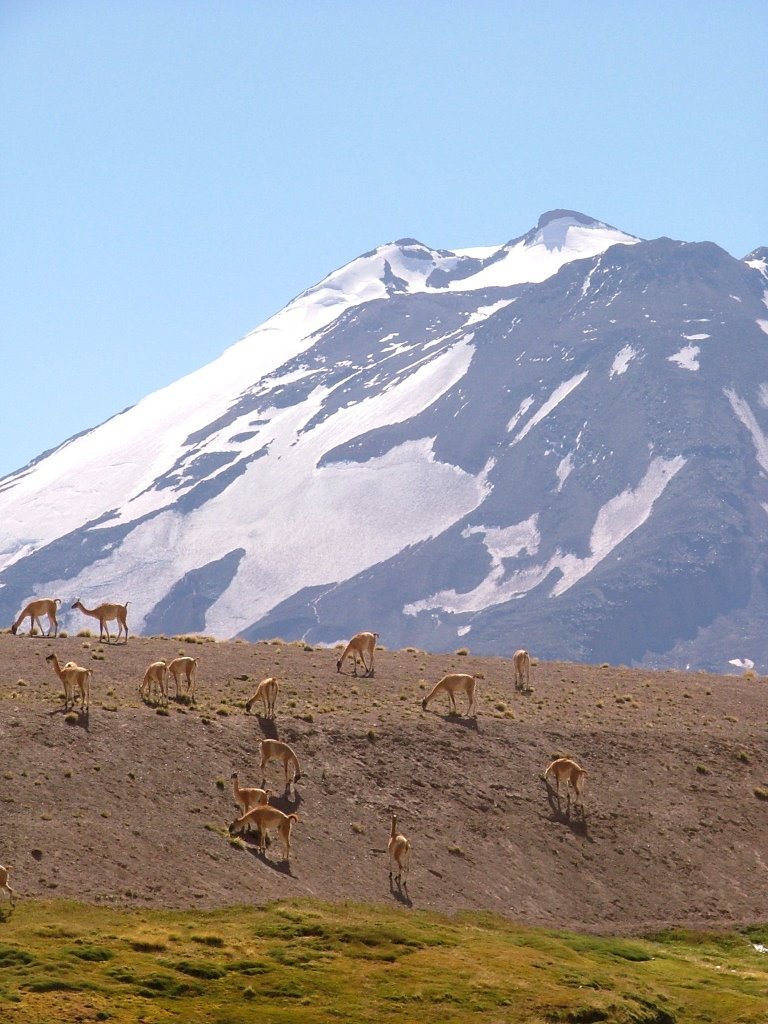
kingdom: Animalia
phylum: Chordata
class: Mammalia
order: Artiodactyla
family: Camelidae
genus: Lama
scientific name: Lama glama
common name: Llama
